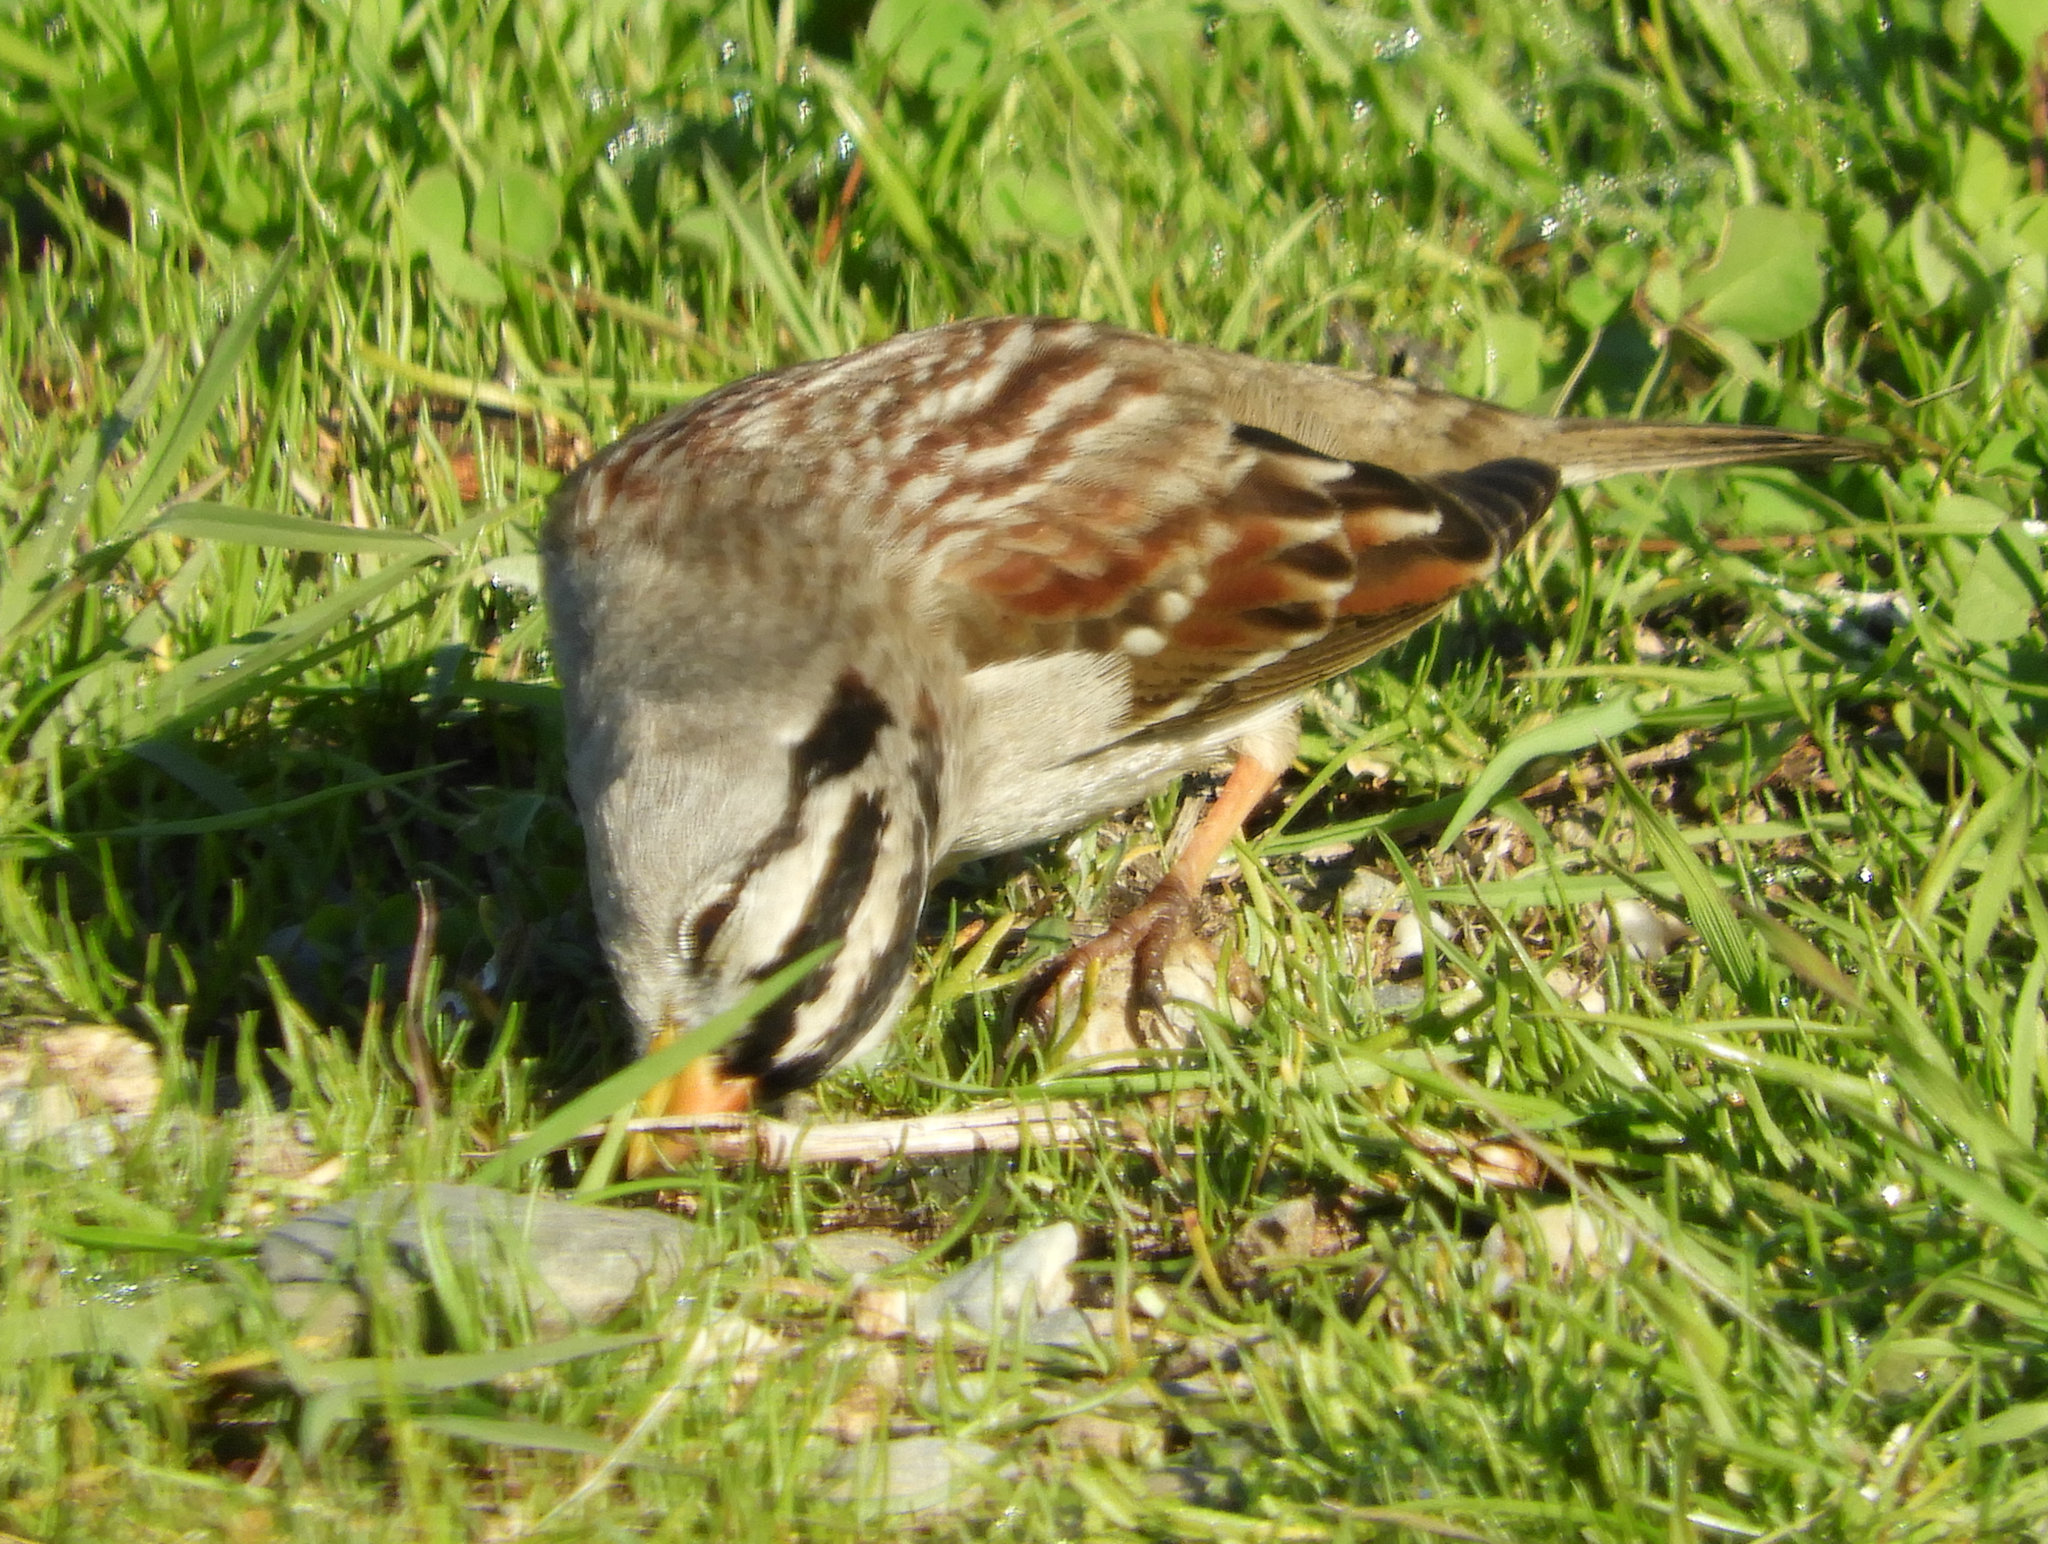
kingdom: Animalia
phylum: Chordata
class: Aves
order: Passeriformes
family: Passerellidae
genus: Zonotrichia
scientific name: Zonotrichia leucophrys
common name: White-crowned sparrow
